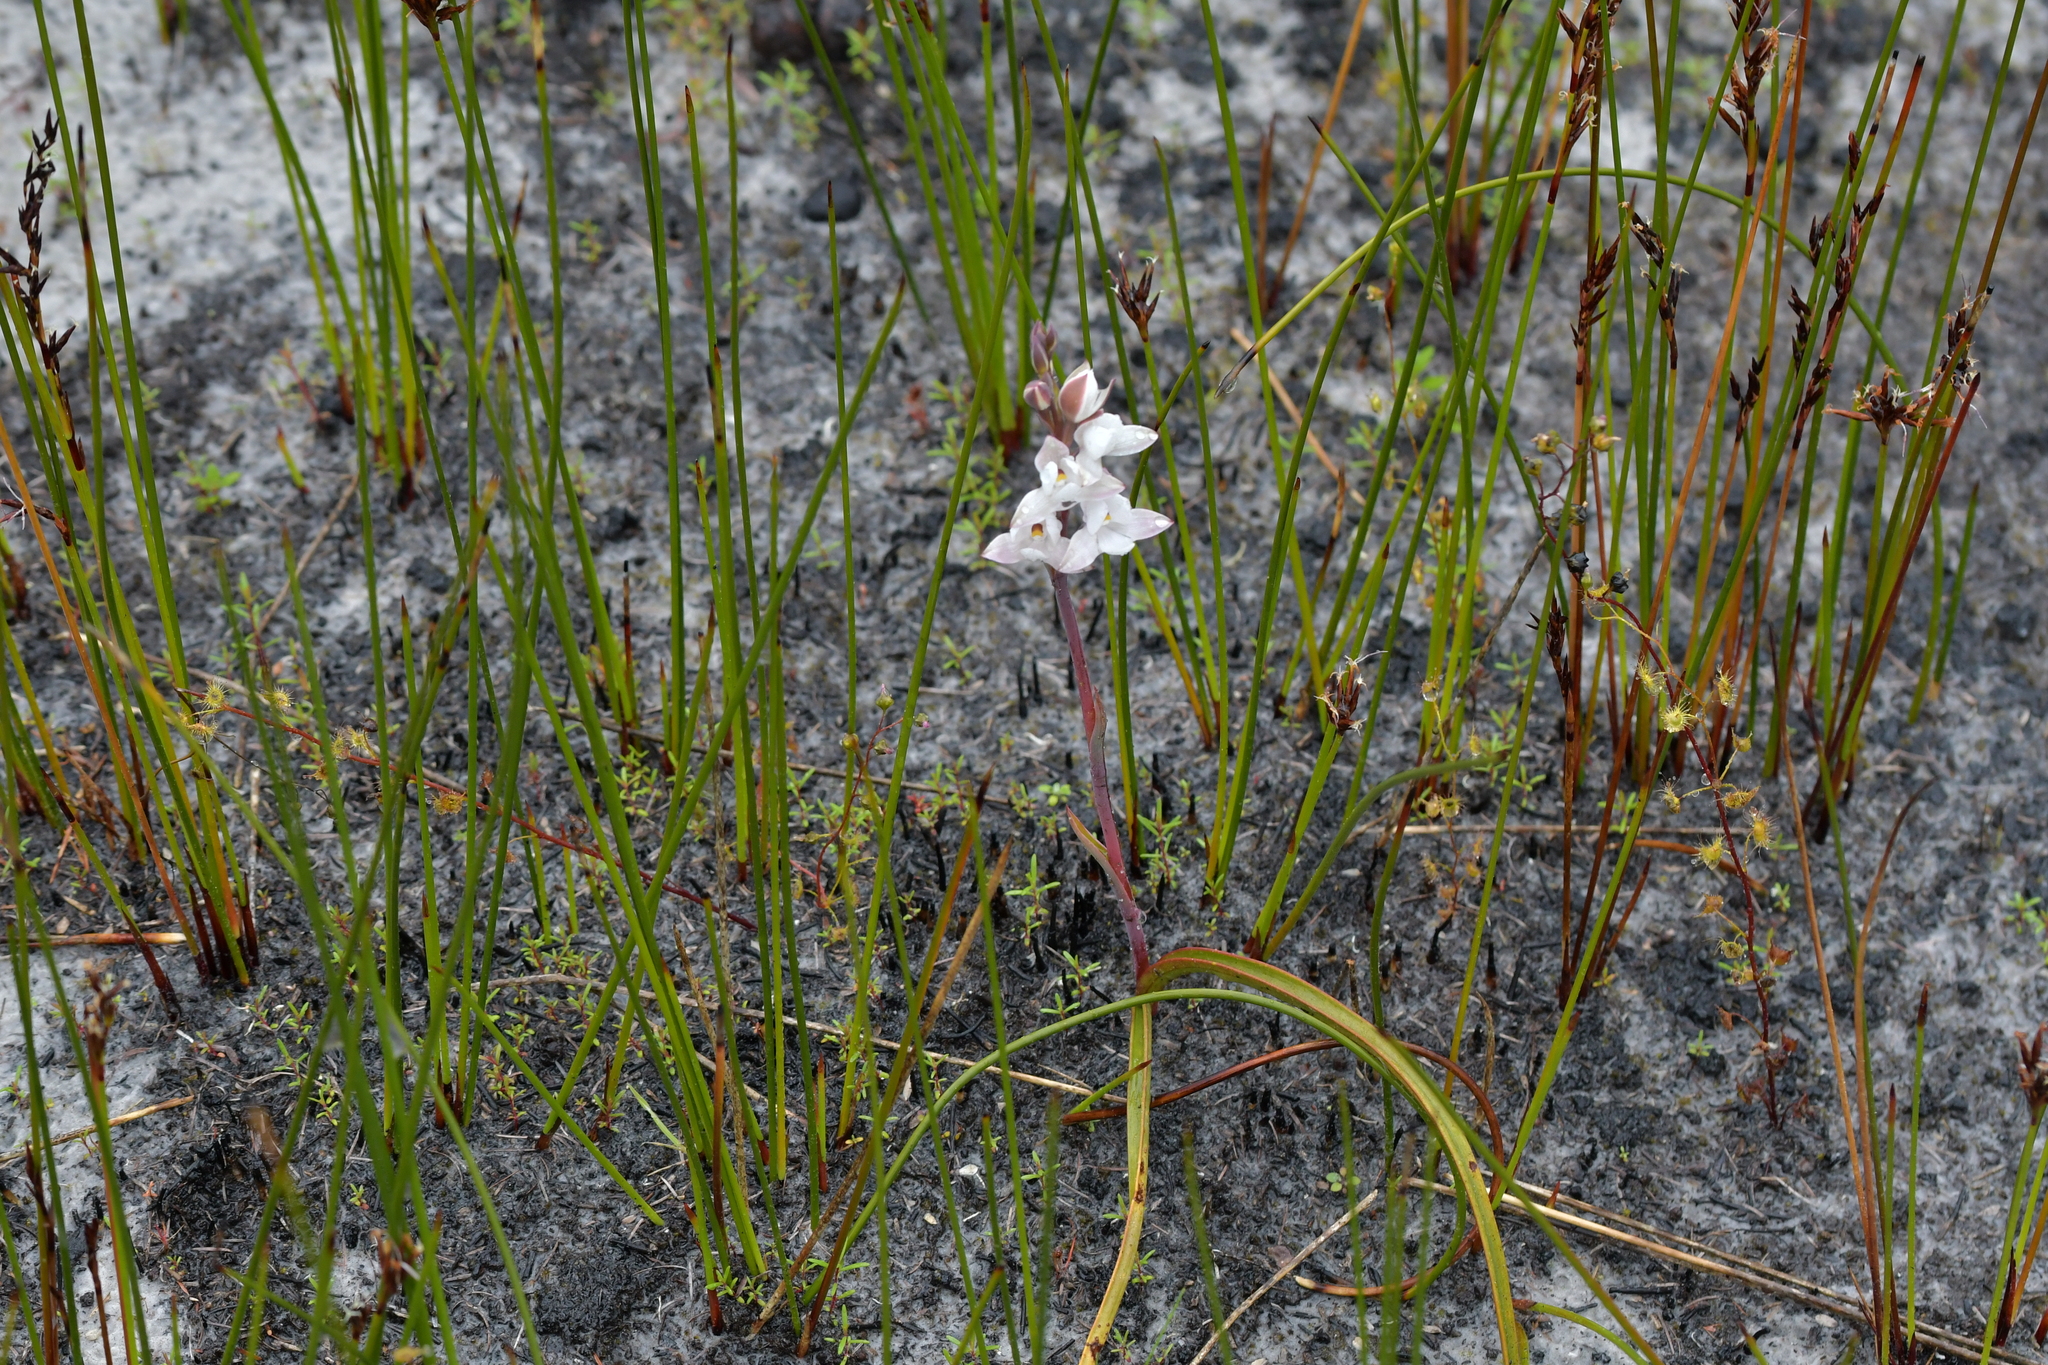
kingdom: Plantae
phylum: Tracheophyta
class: Liliopsida
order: Asparagales
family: Orchidaceae
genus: Thelymitra
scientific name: Thelymitra longifolia
